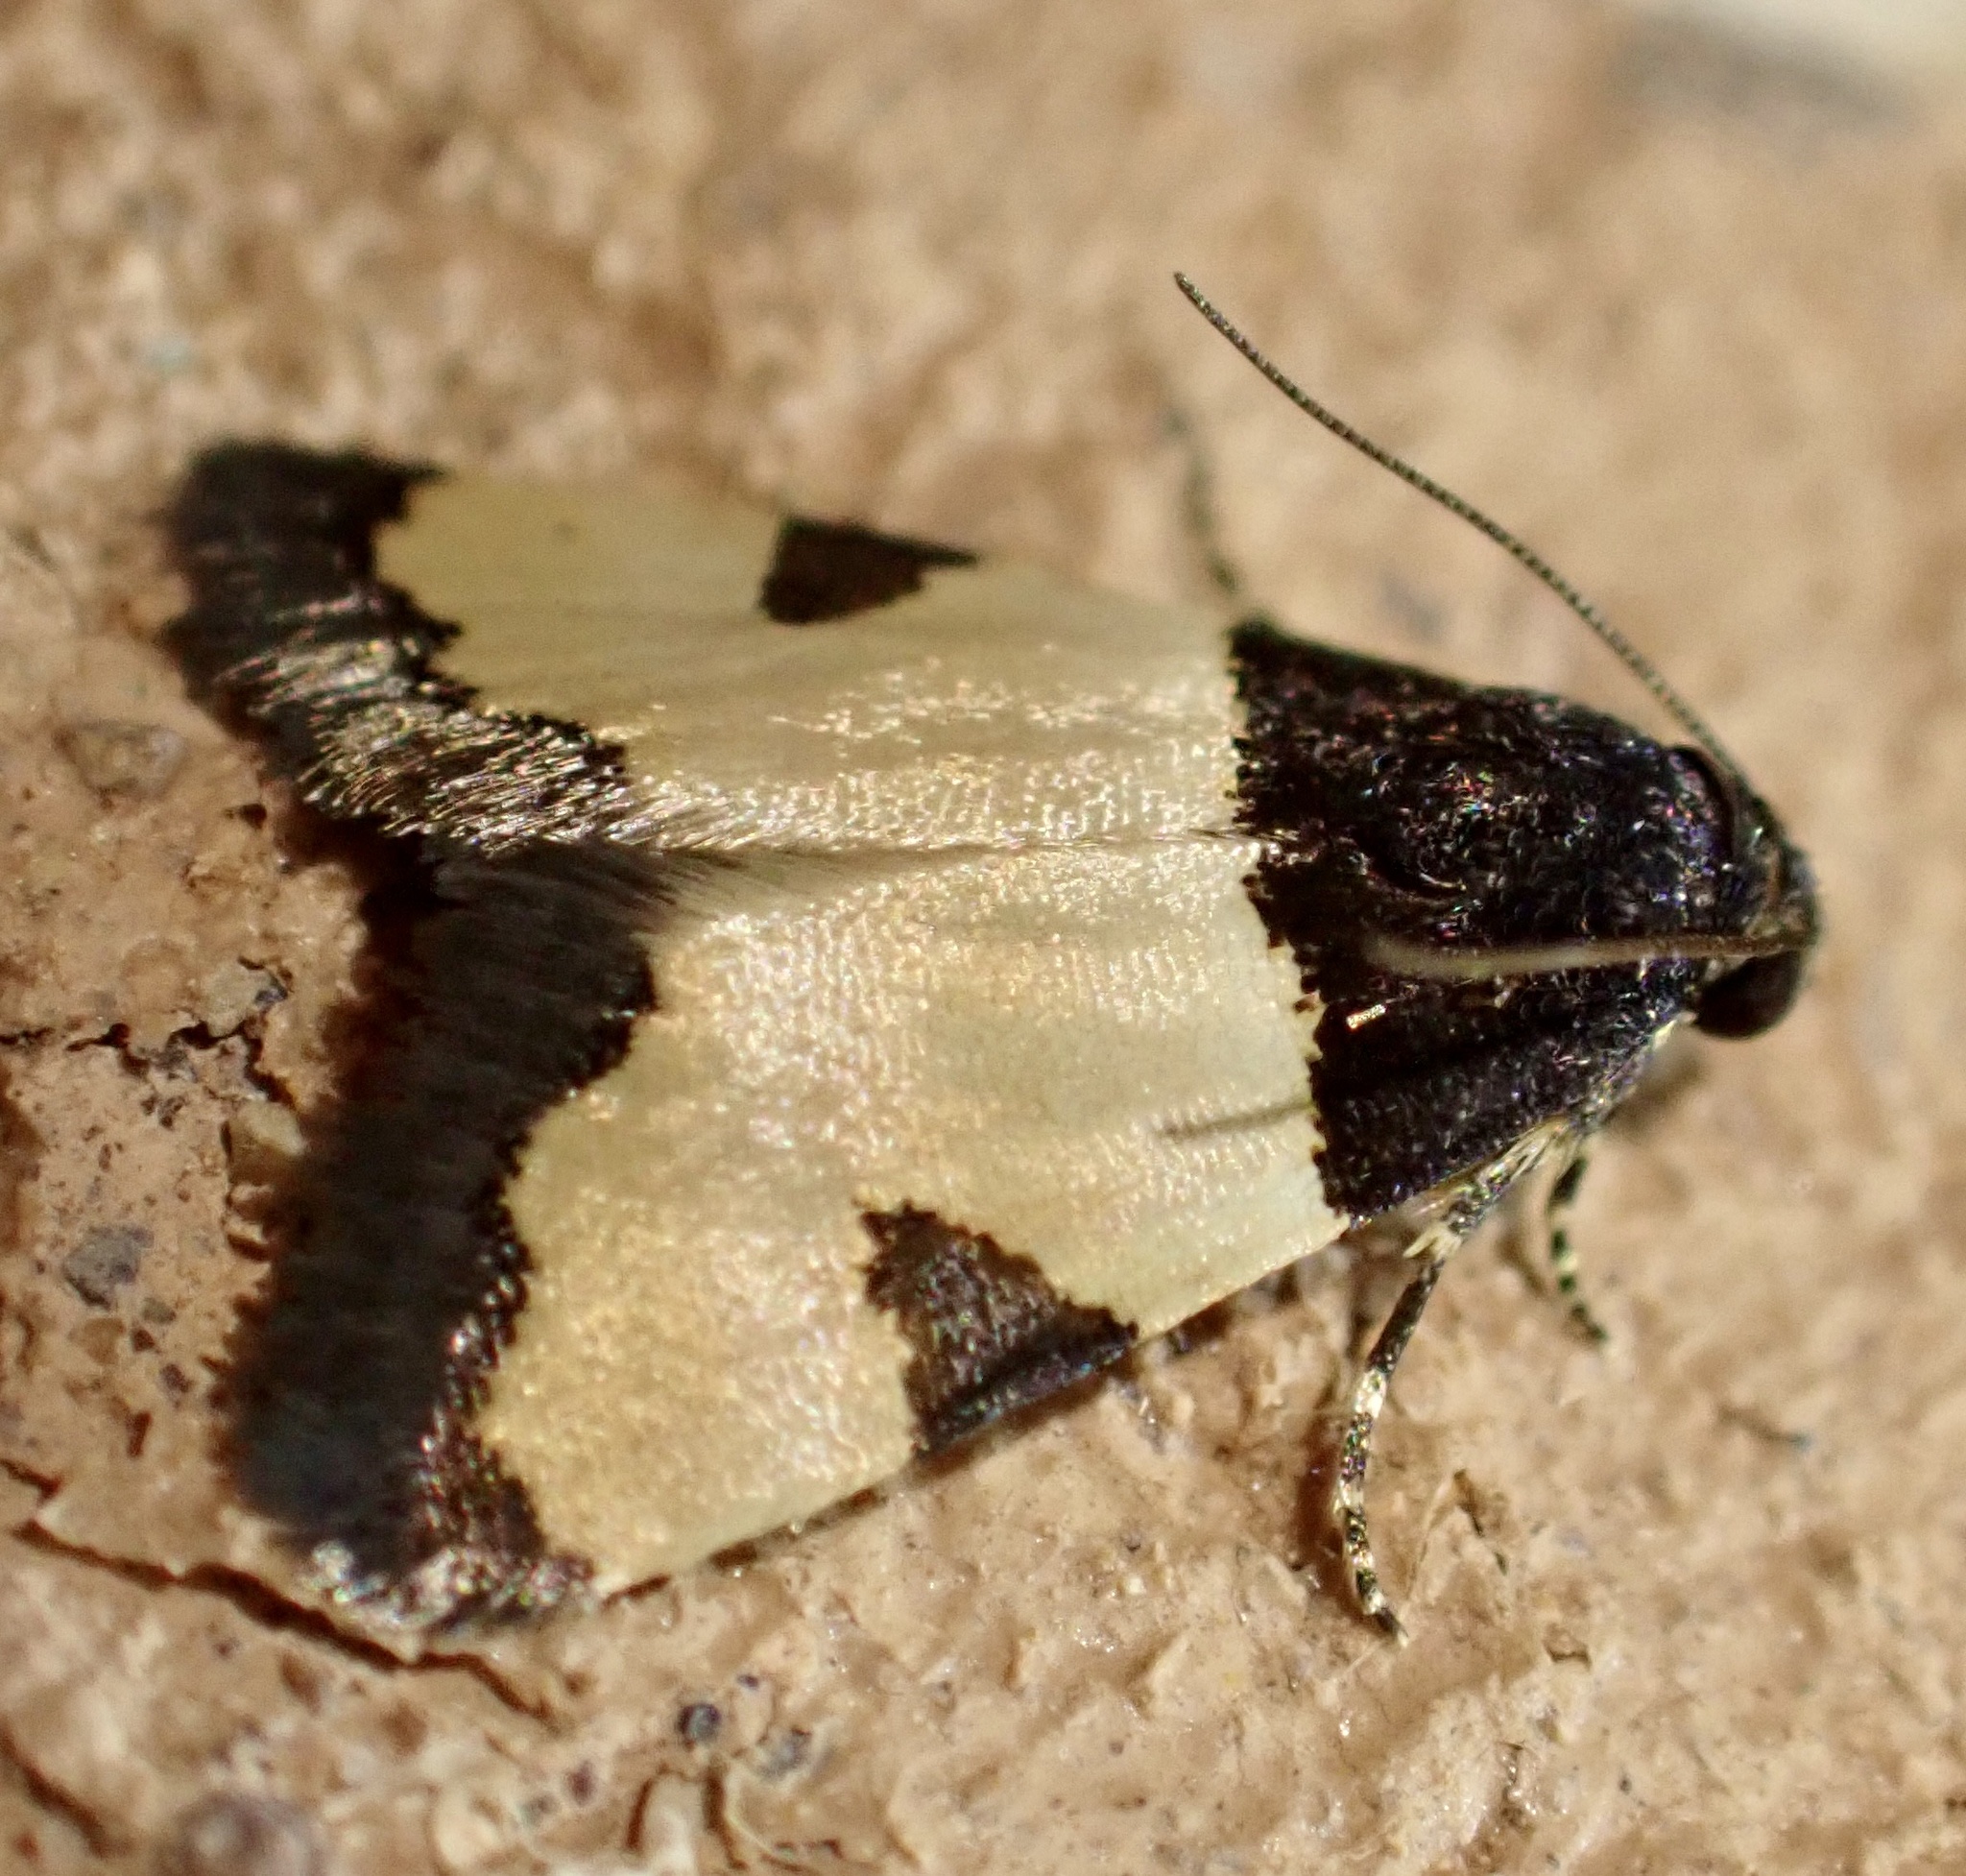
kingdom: Animalia
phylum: Arthropoda
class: Insecta
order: Lepidoptera
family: Noctuidae
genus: Thalerastria
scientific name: Thalerastria lehmanni
